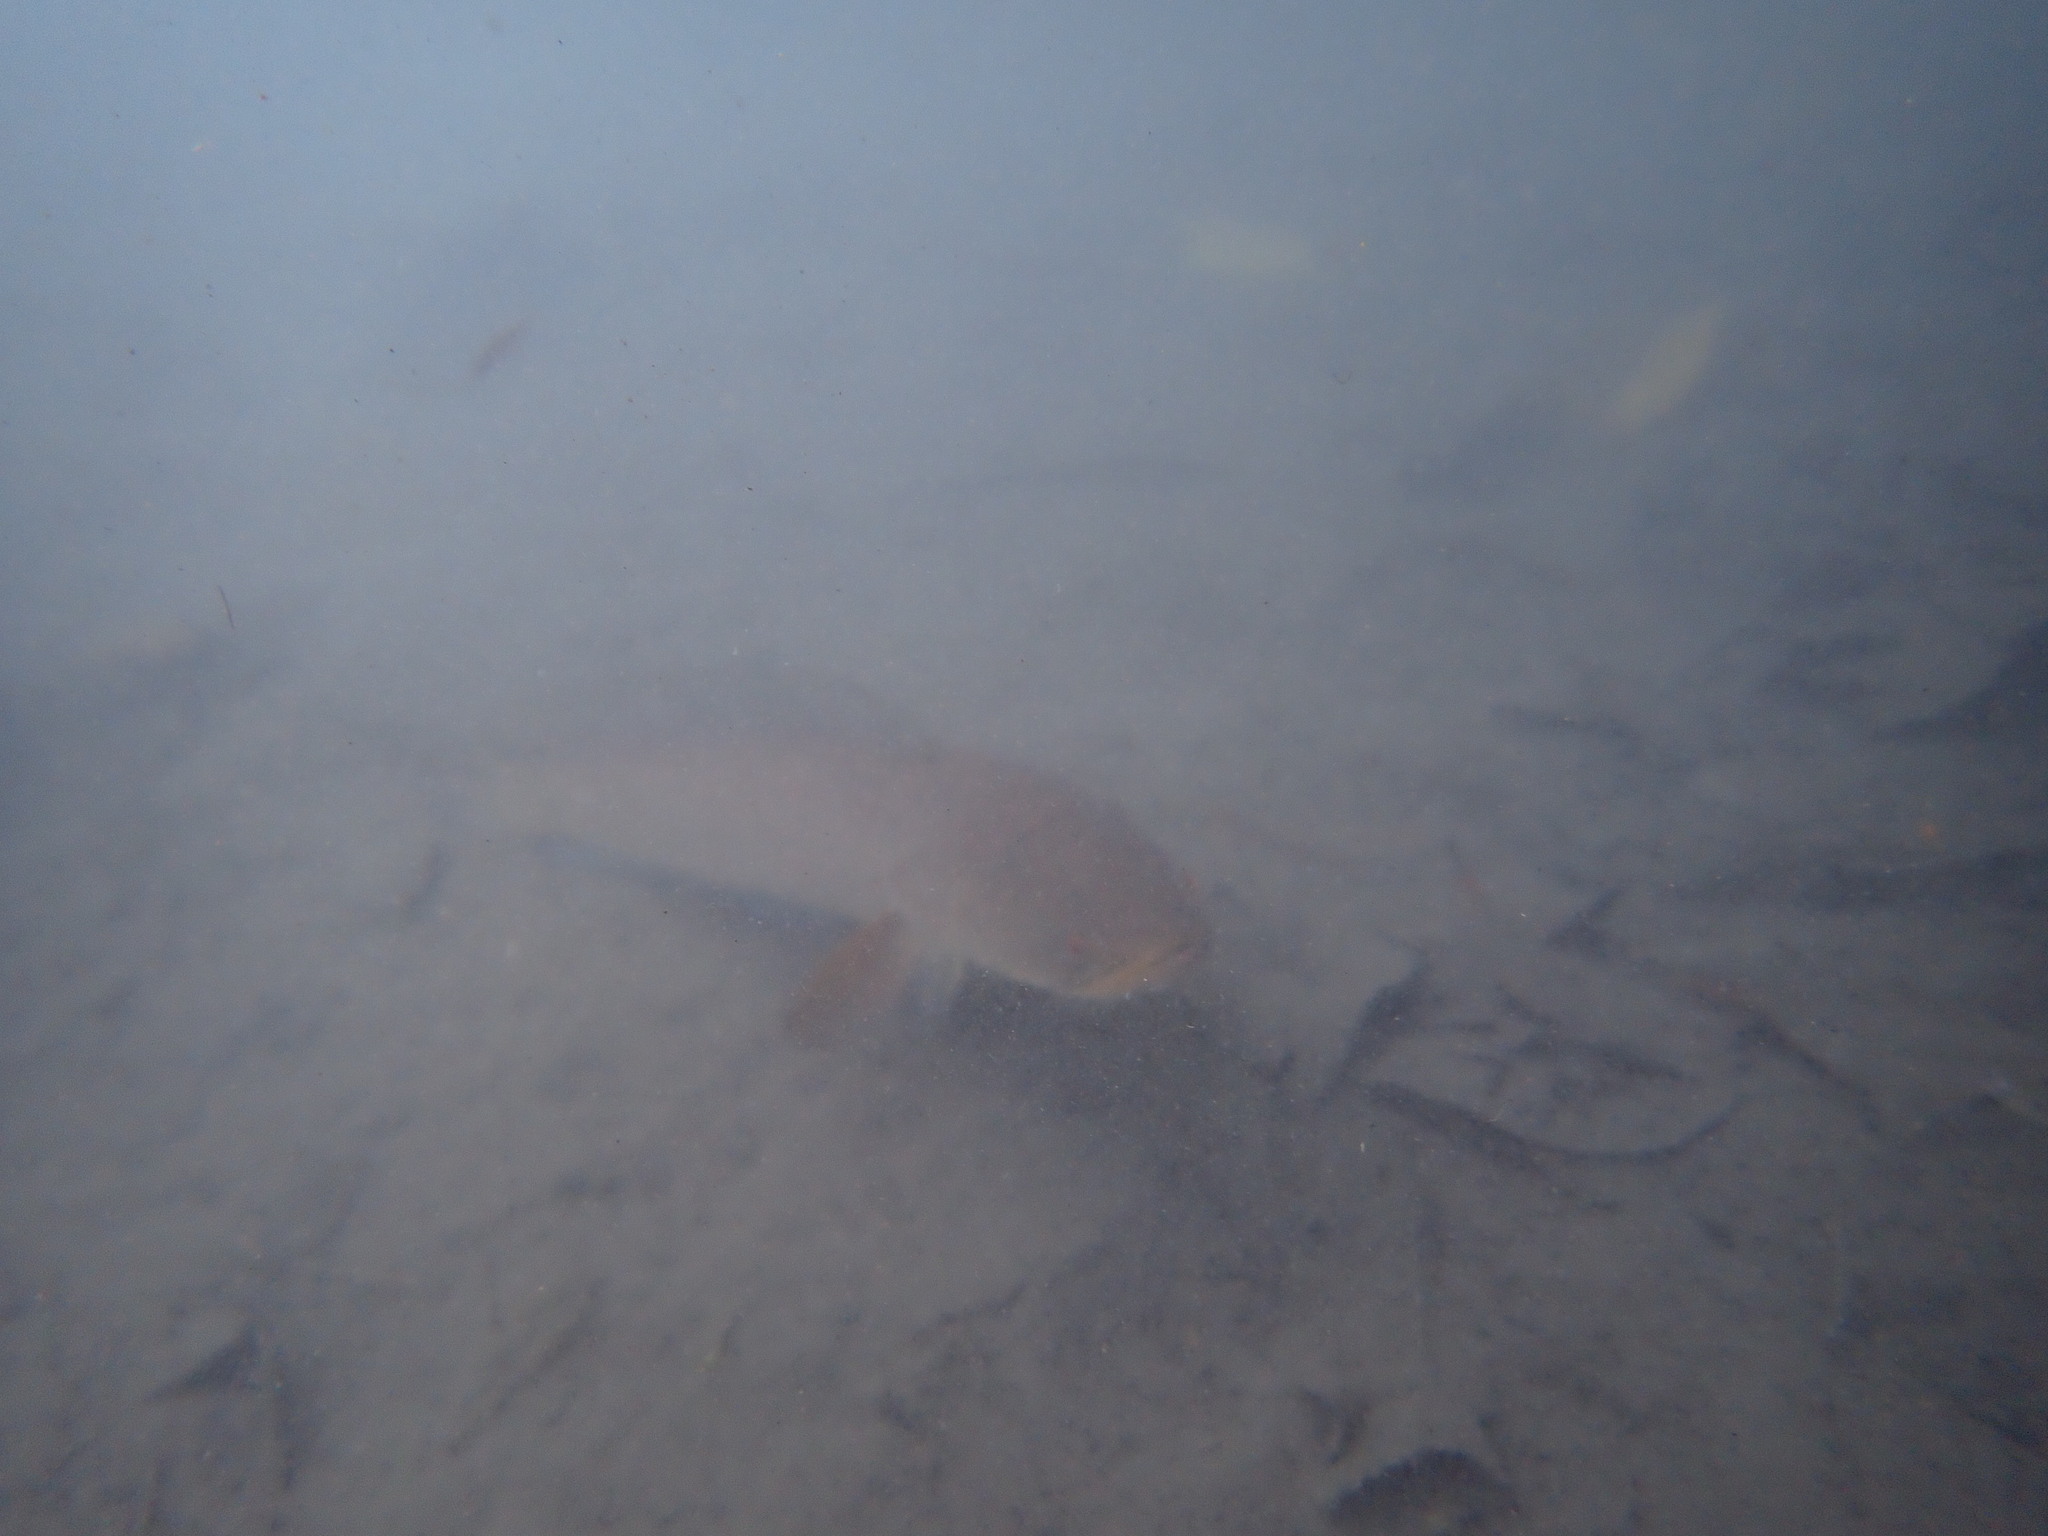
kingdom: Animalia
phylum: Chordata
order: Perciformes
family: Channidae
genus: Channa
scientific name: Channa striata
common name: Striped snakehead
